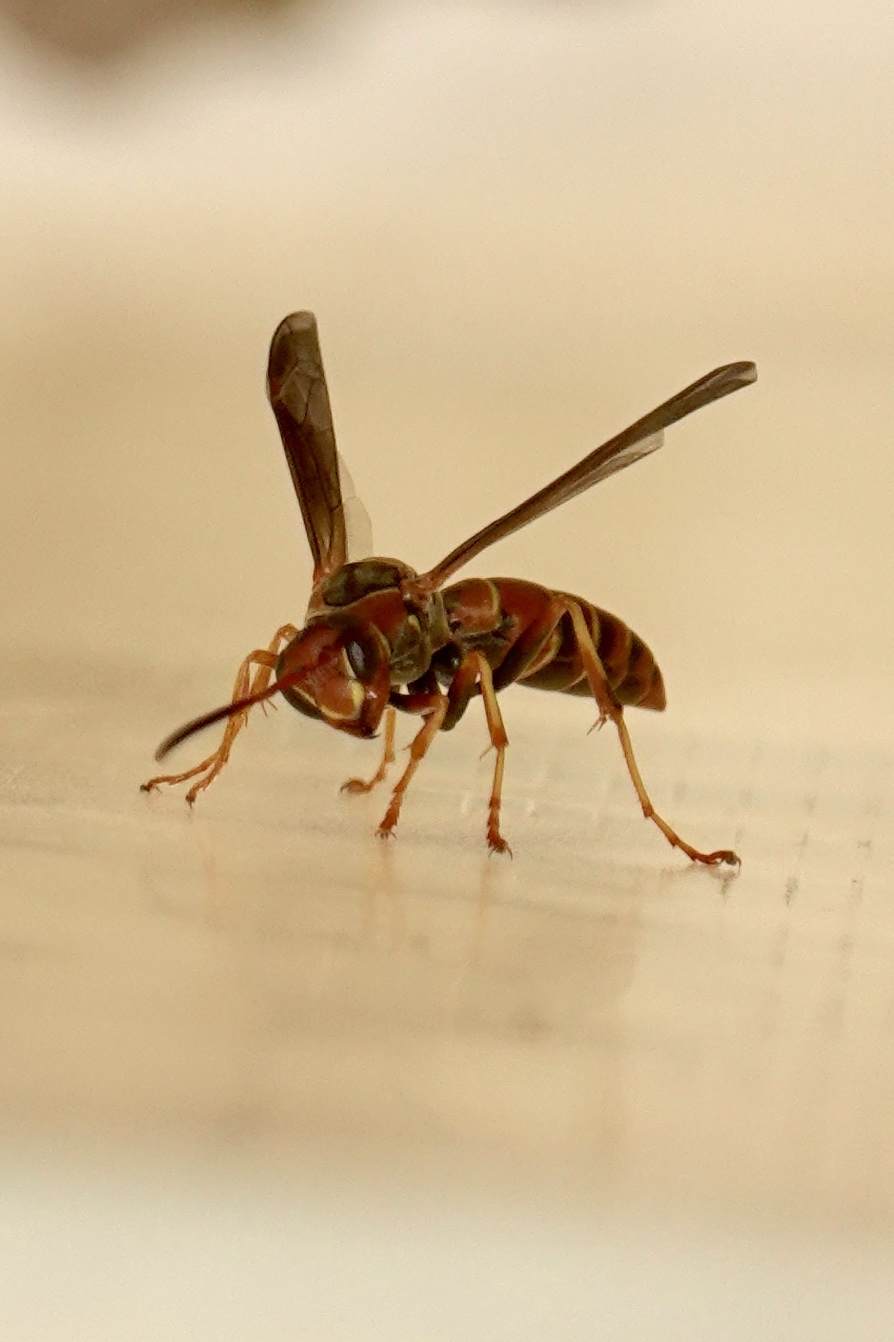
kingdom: Animalia
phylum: Arthropoda
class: Insecta
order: Hymenoptera
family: Eumenidae
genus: Polistes
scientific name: Polistes dorsalis
